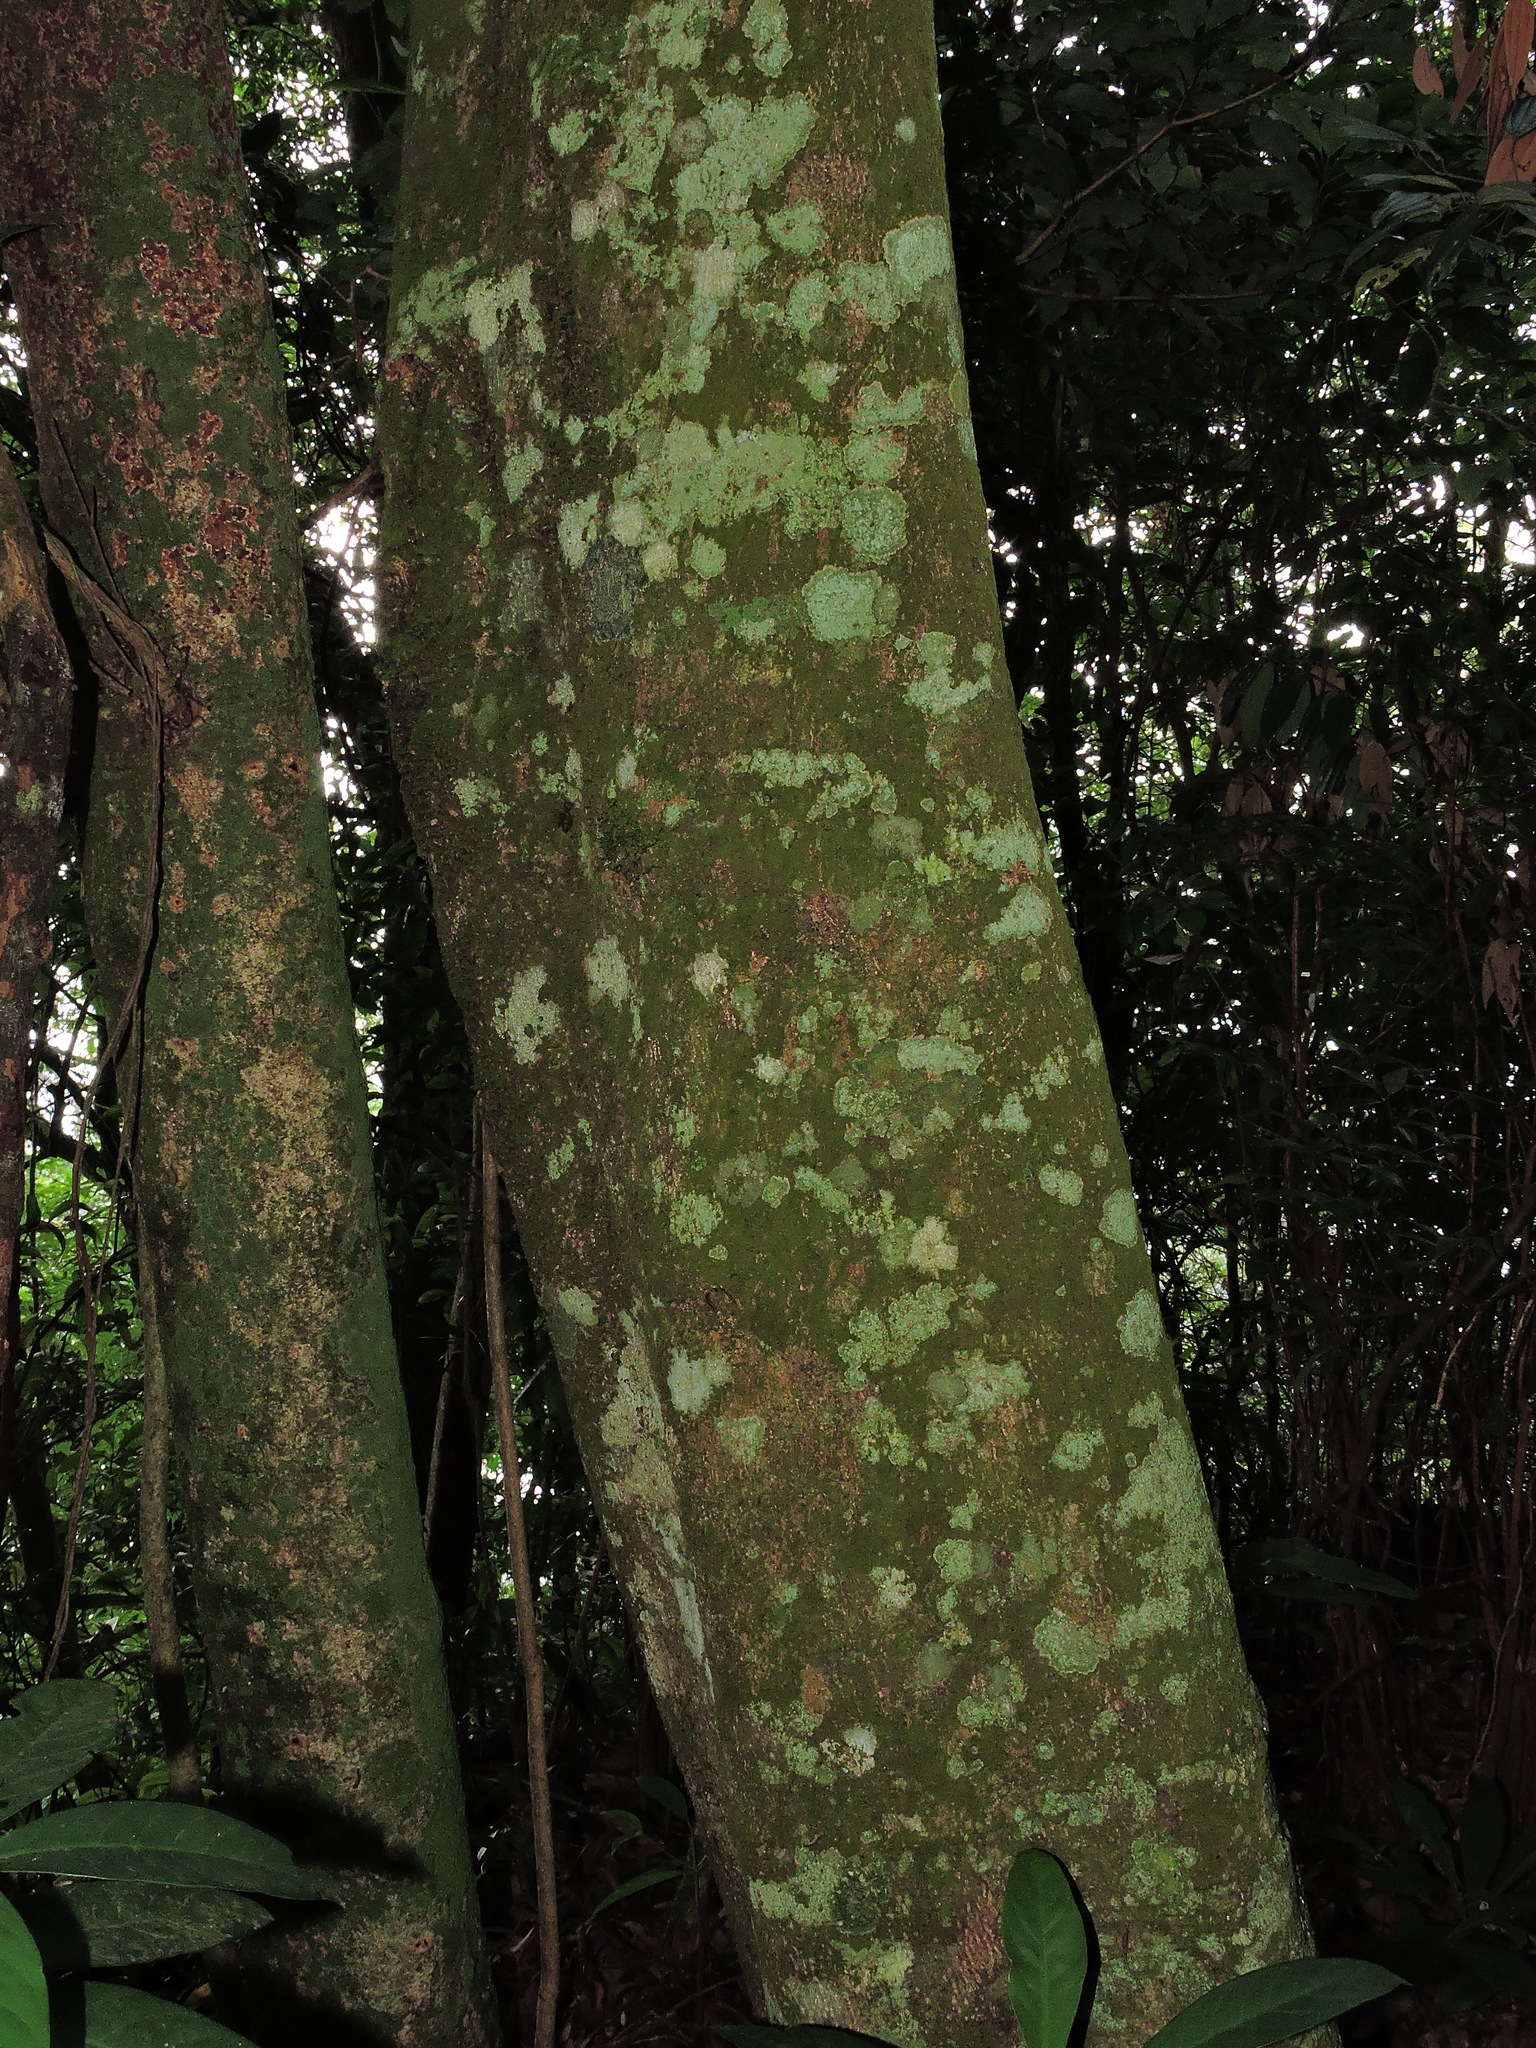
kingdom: Plantae
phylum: Tracheophyta
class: Magnoliopsida
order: Ericales
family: Pentaphylacaceae
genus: Ternstroemia
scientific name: Ternstroemia gymnanthera
